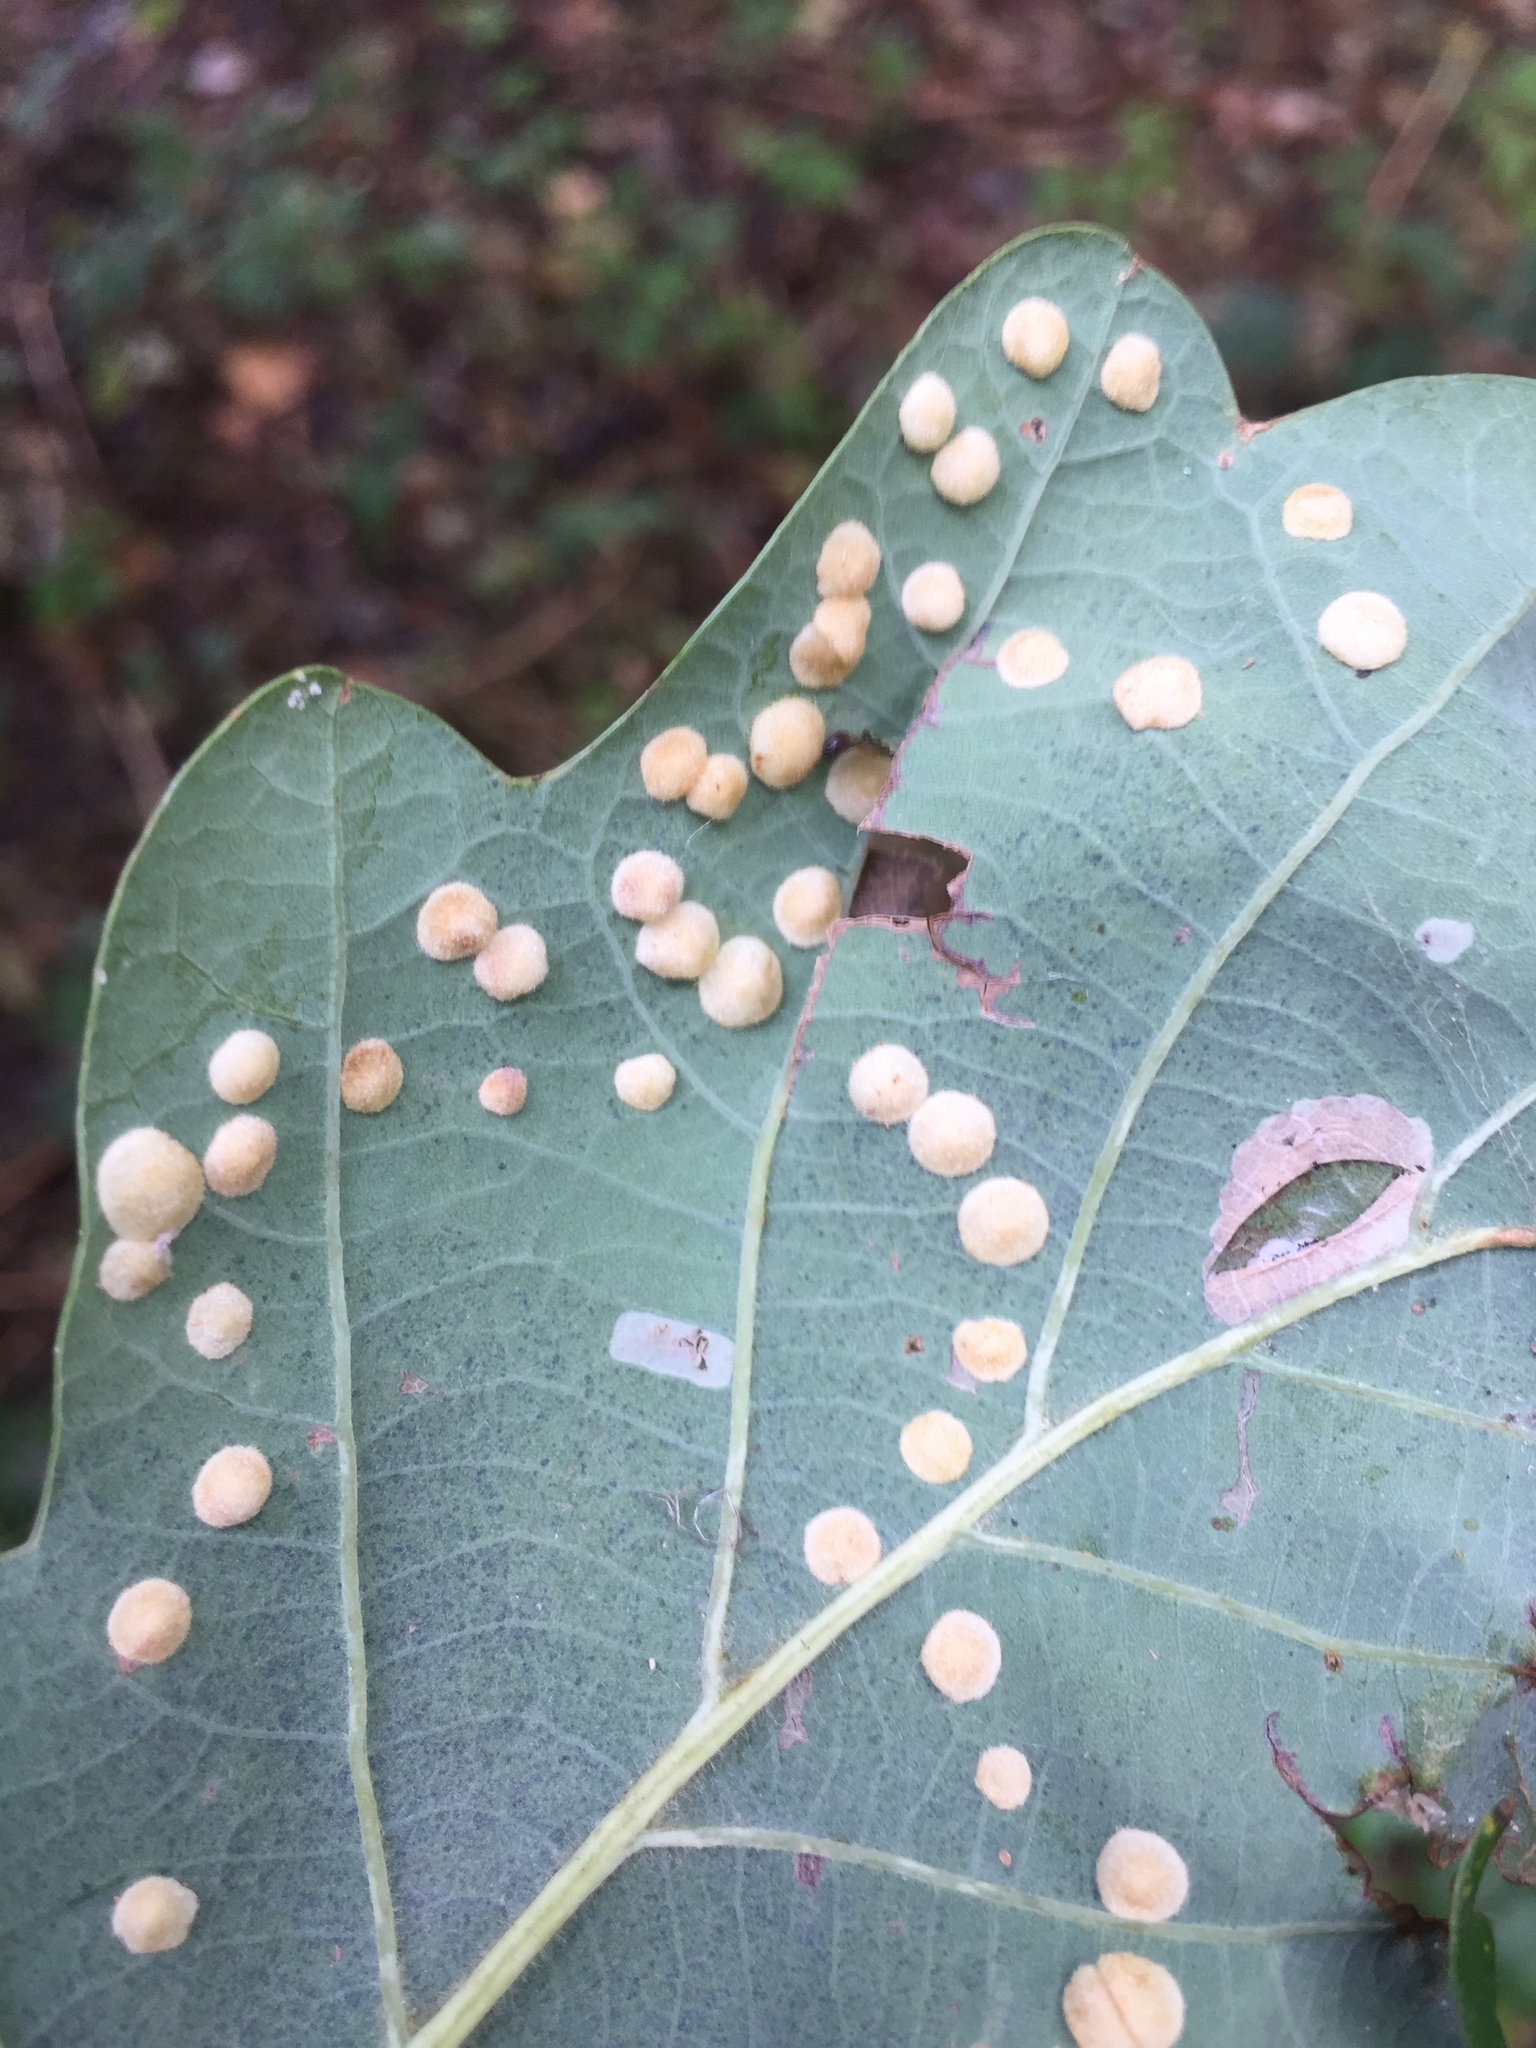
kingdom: Animalia
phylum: Arthropoda
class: Insecta
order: Hymenoptera
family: Cynipidae
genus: Neuroterus
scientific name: Neuroterus quercusbaccarum
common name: Common spangle gall
